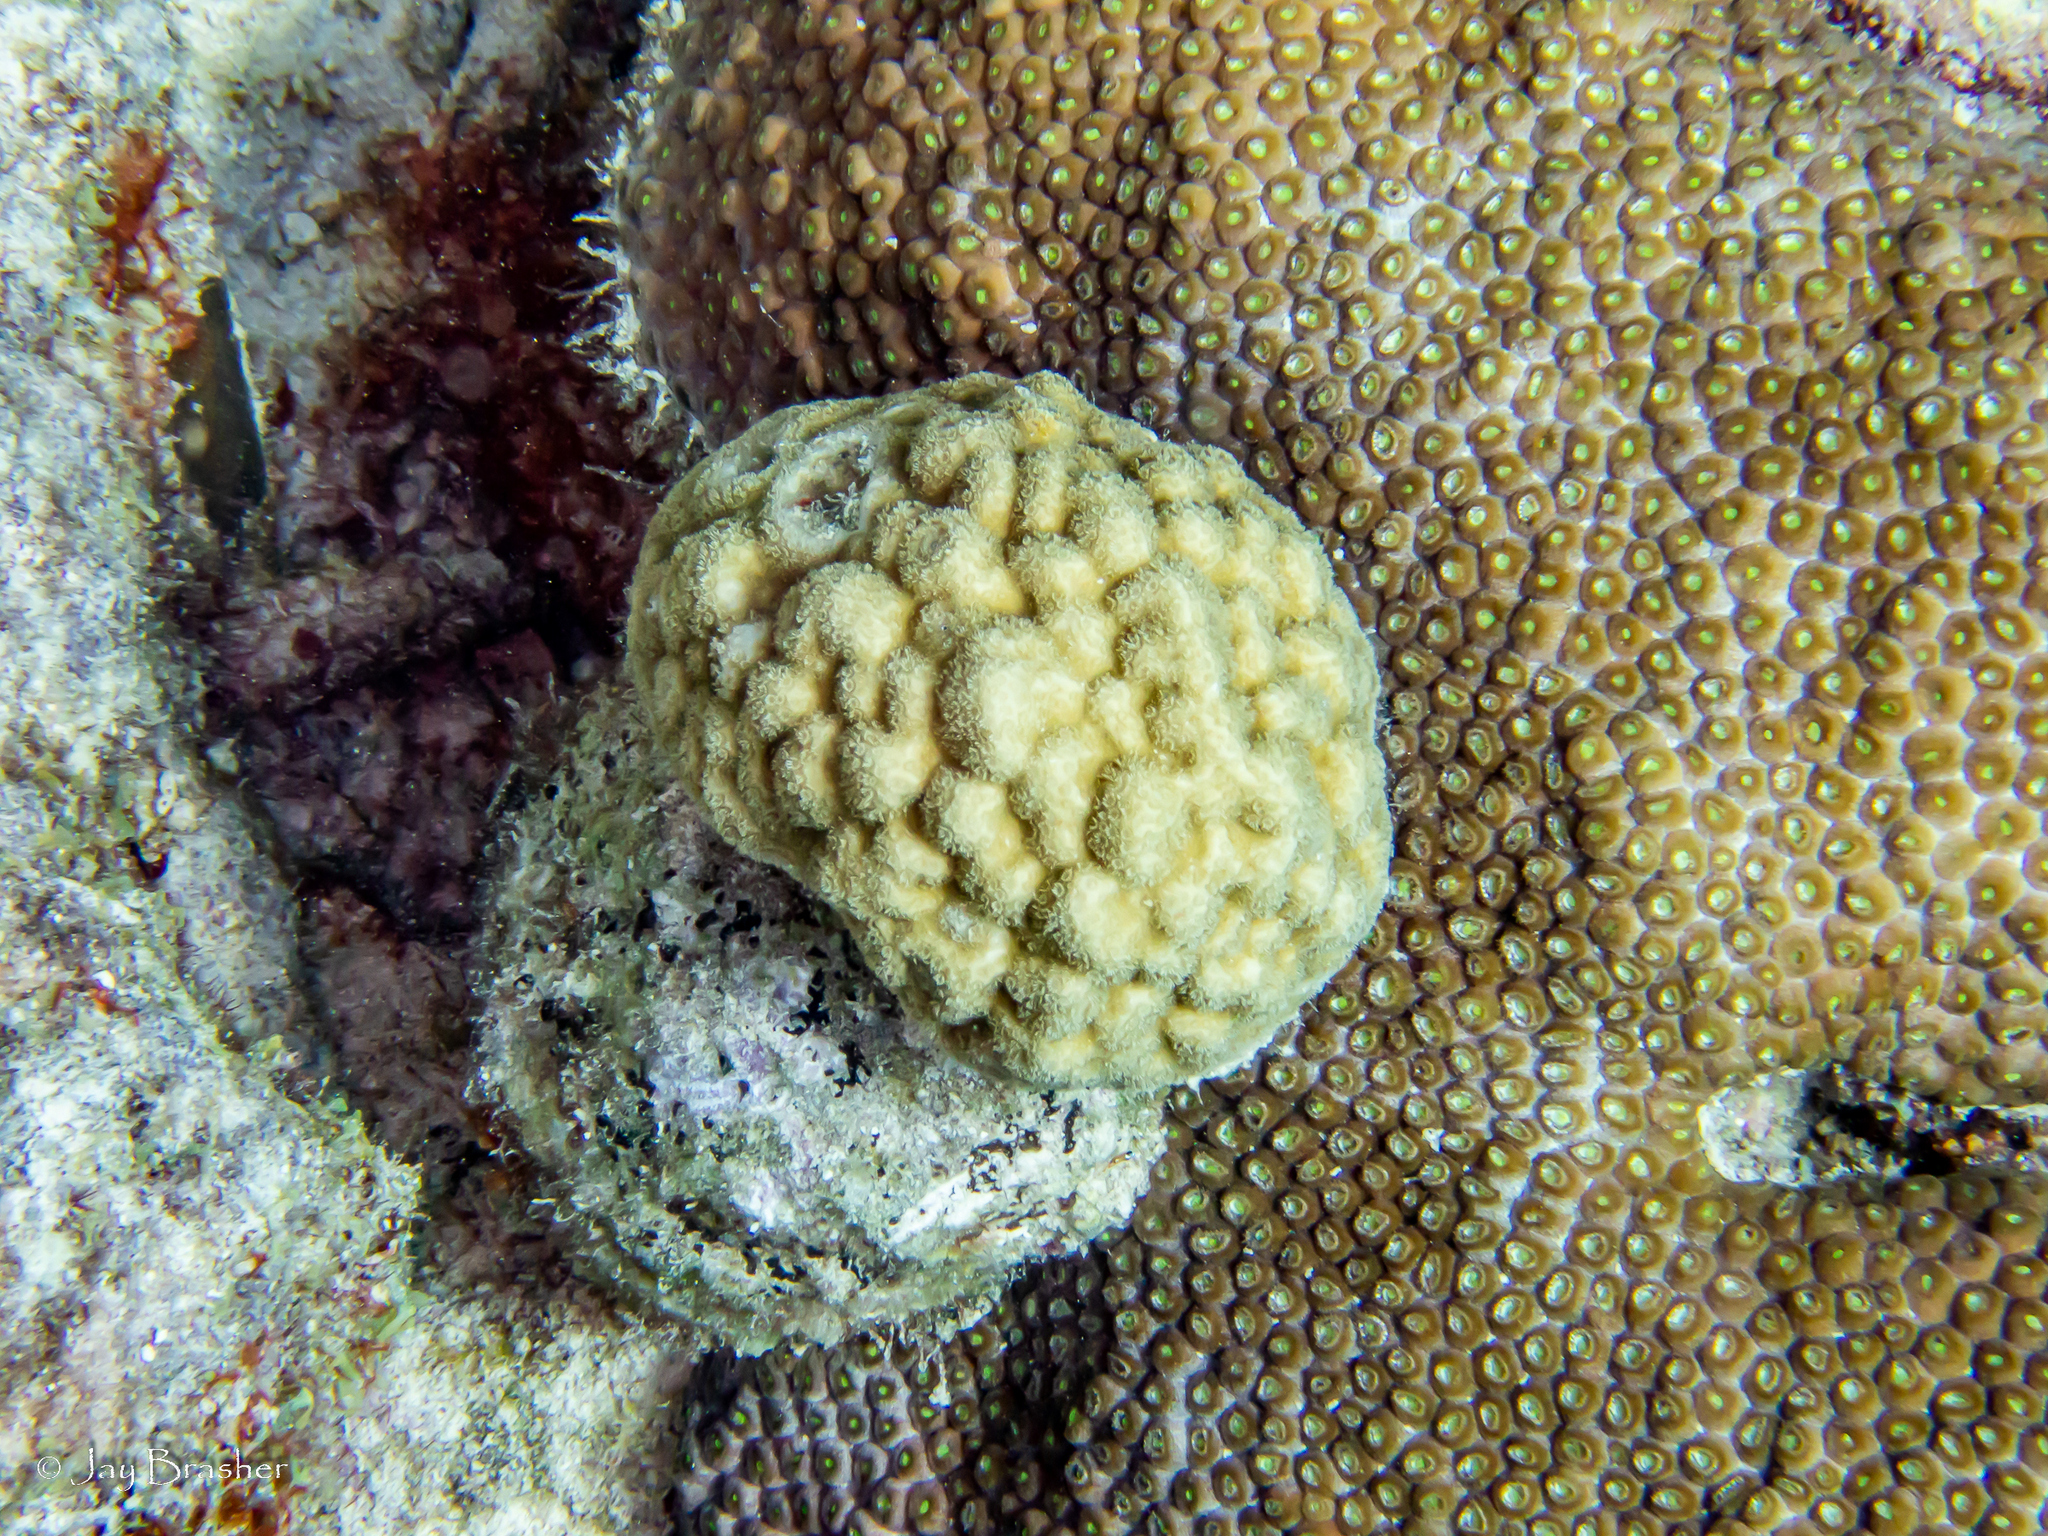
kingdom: Animalia
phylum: Cnidaria
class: Anthozoa
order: Scleractinia
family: Poritidae
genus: Porites
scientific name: Porites astreoides
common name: Mustard hill coral
